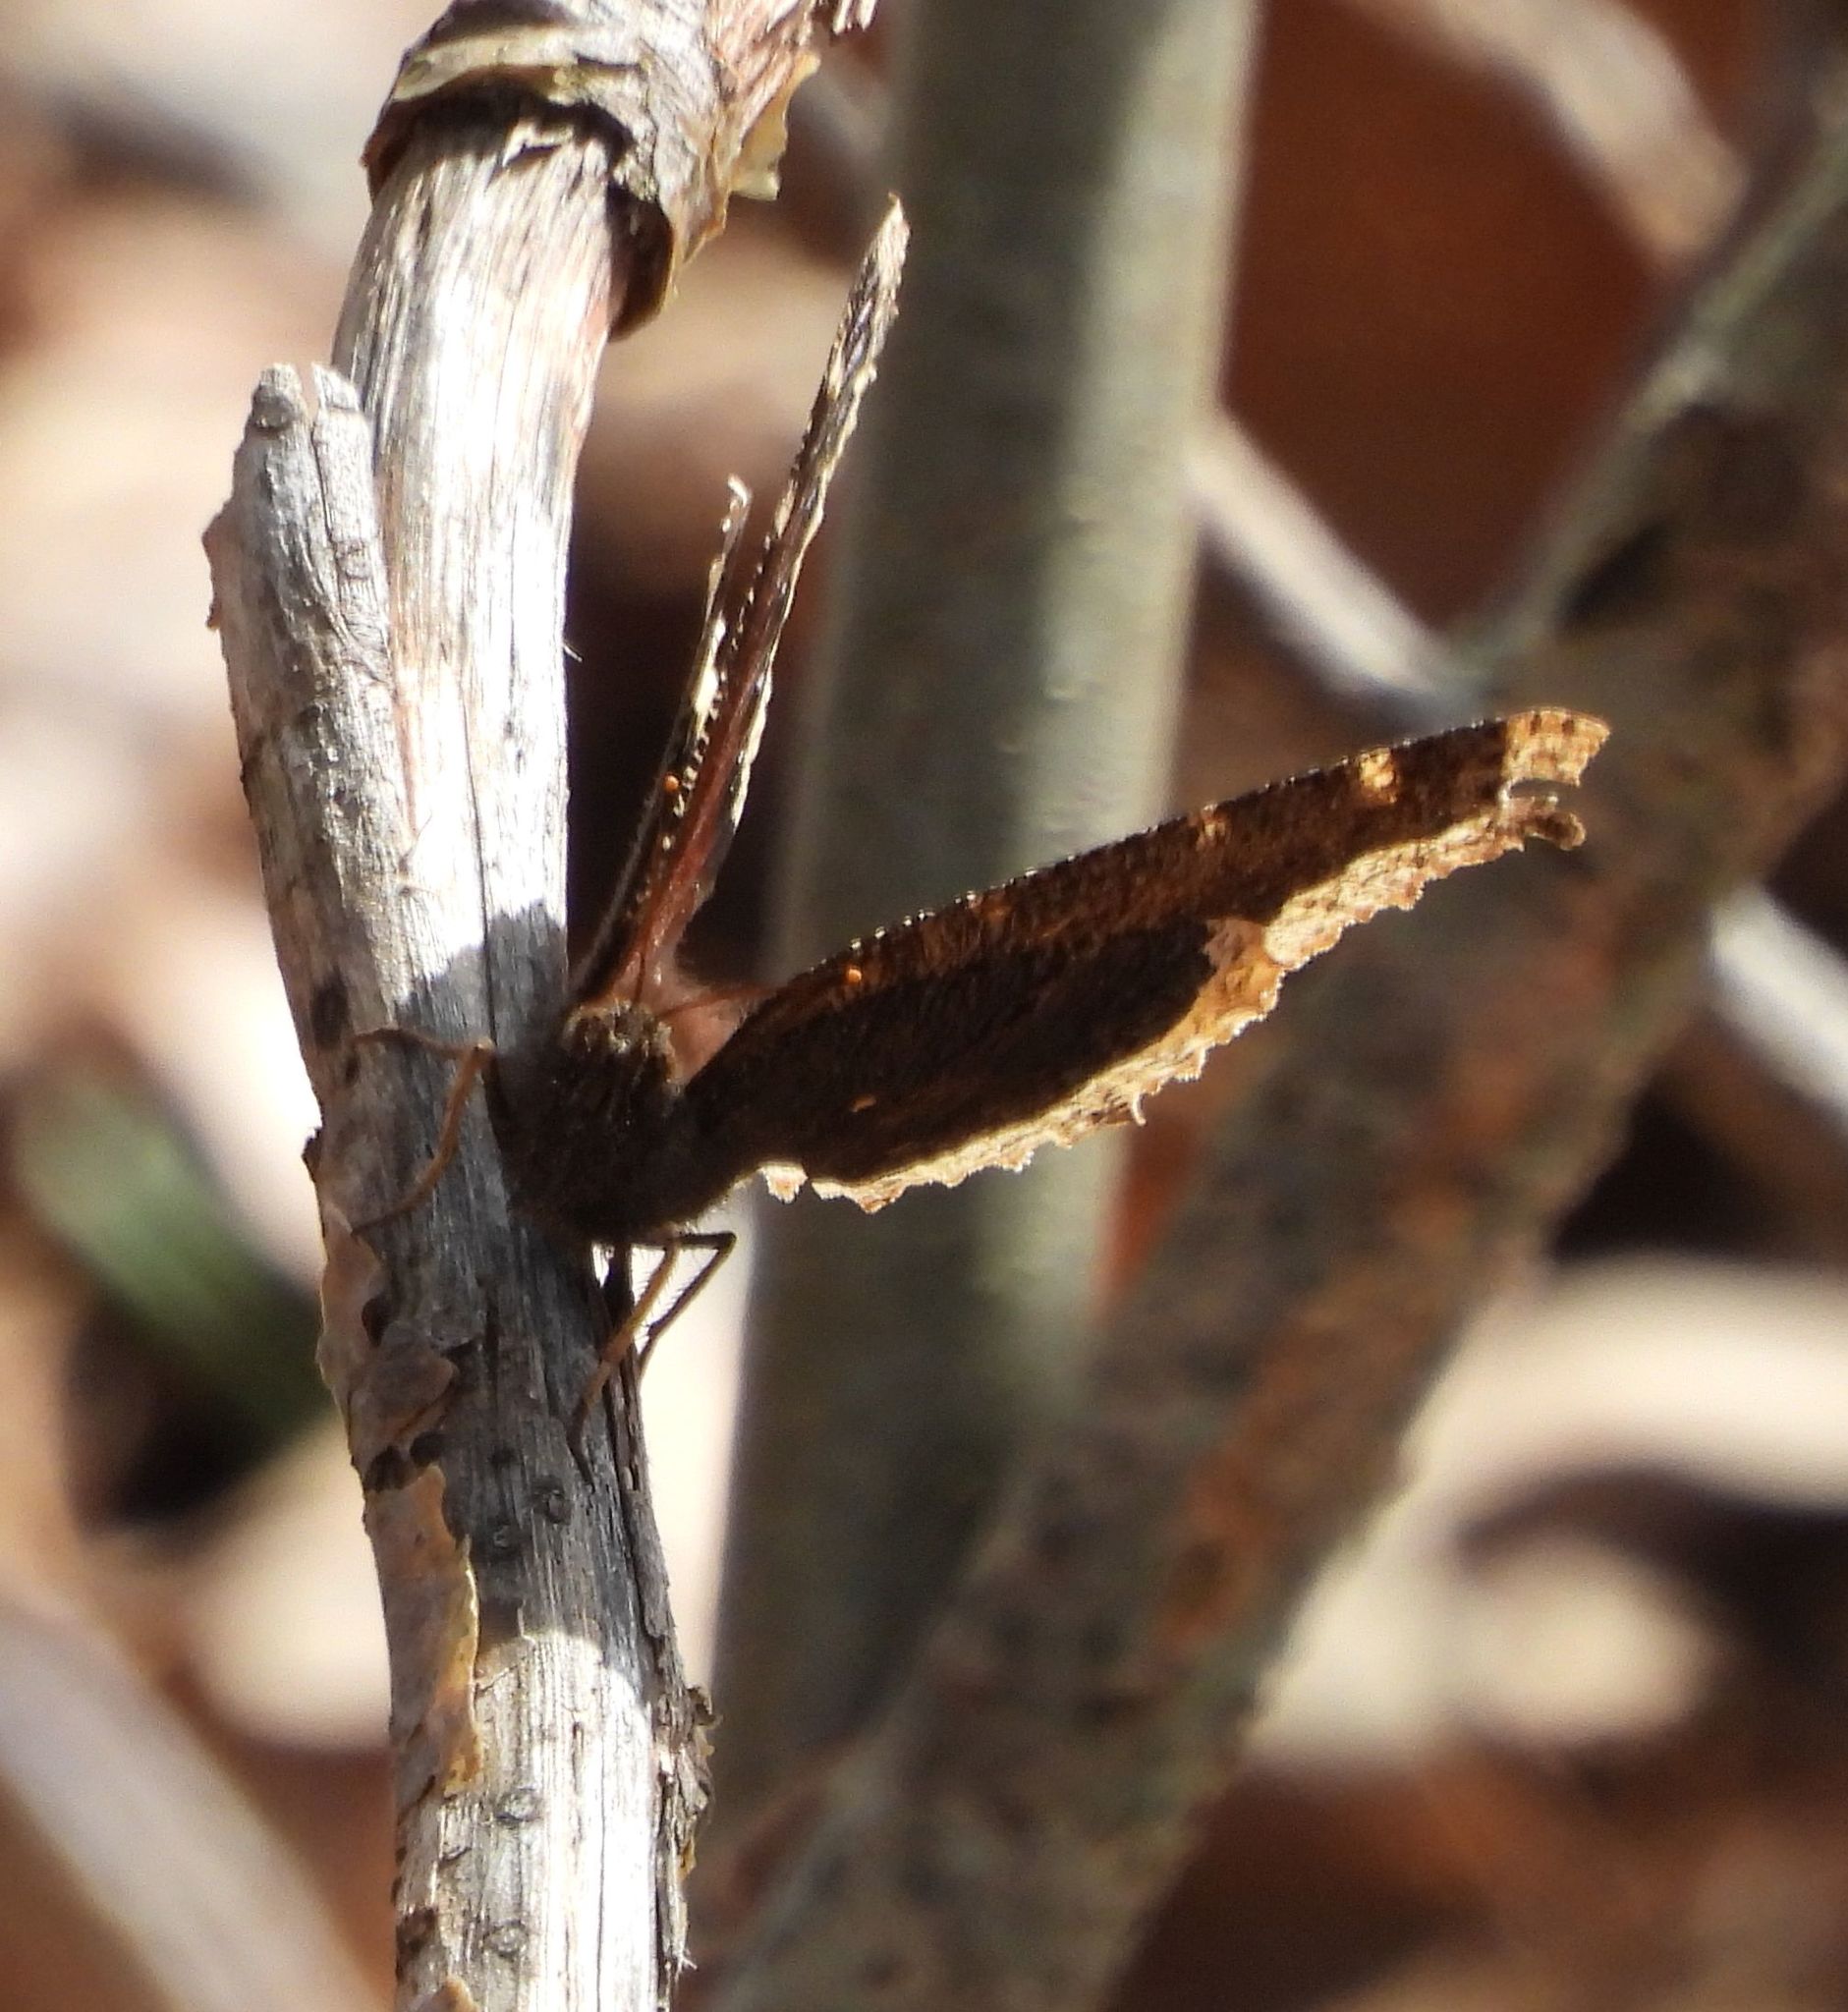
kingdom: Animalia
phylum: Arthropoda
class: Insecta
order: Lepidoptera
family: Nymphalidae
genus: Nymphalis
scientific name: Nymphalis antiopa
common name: Camberwell beauty
